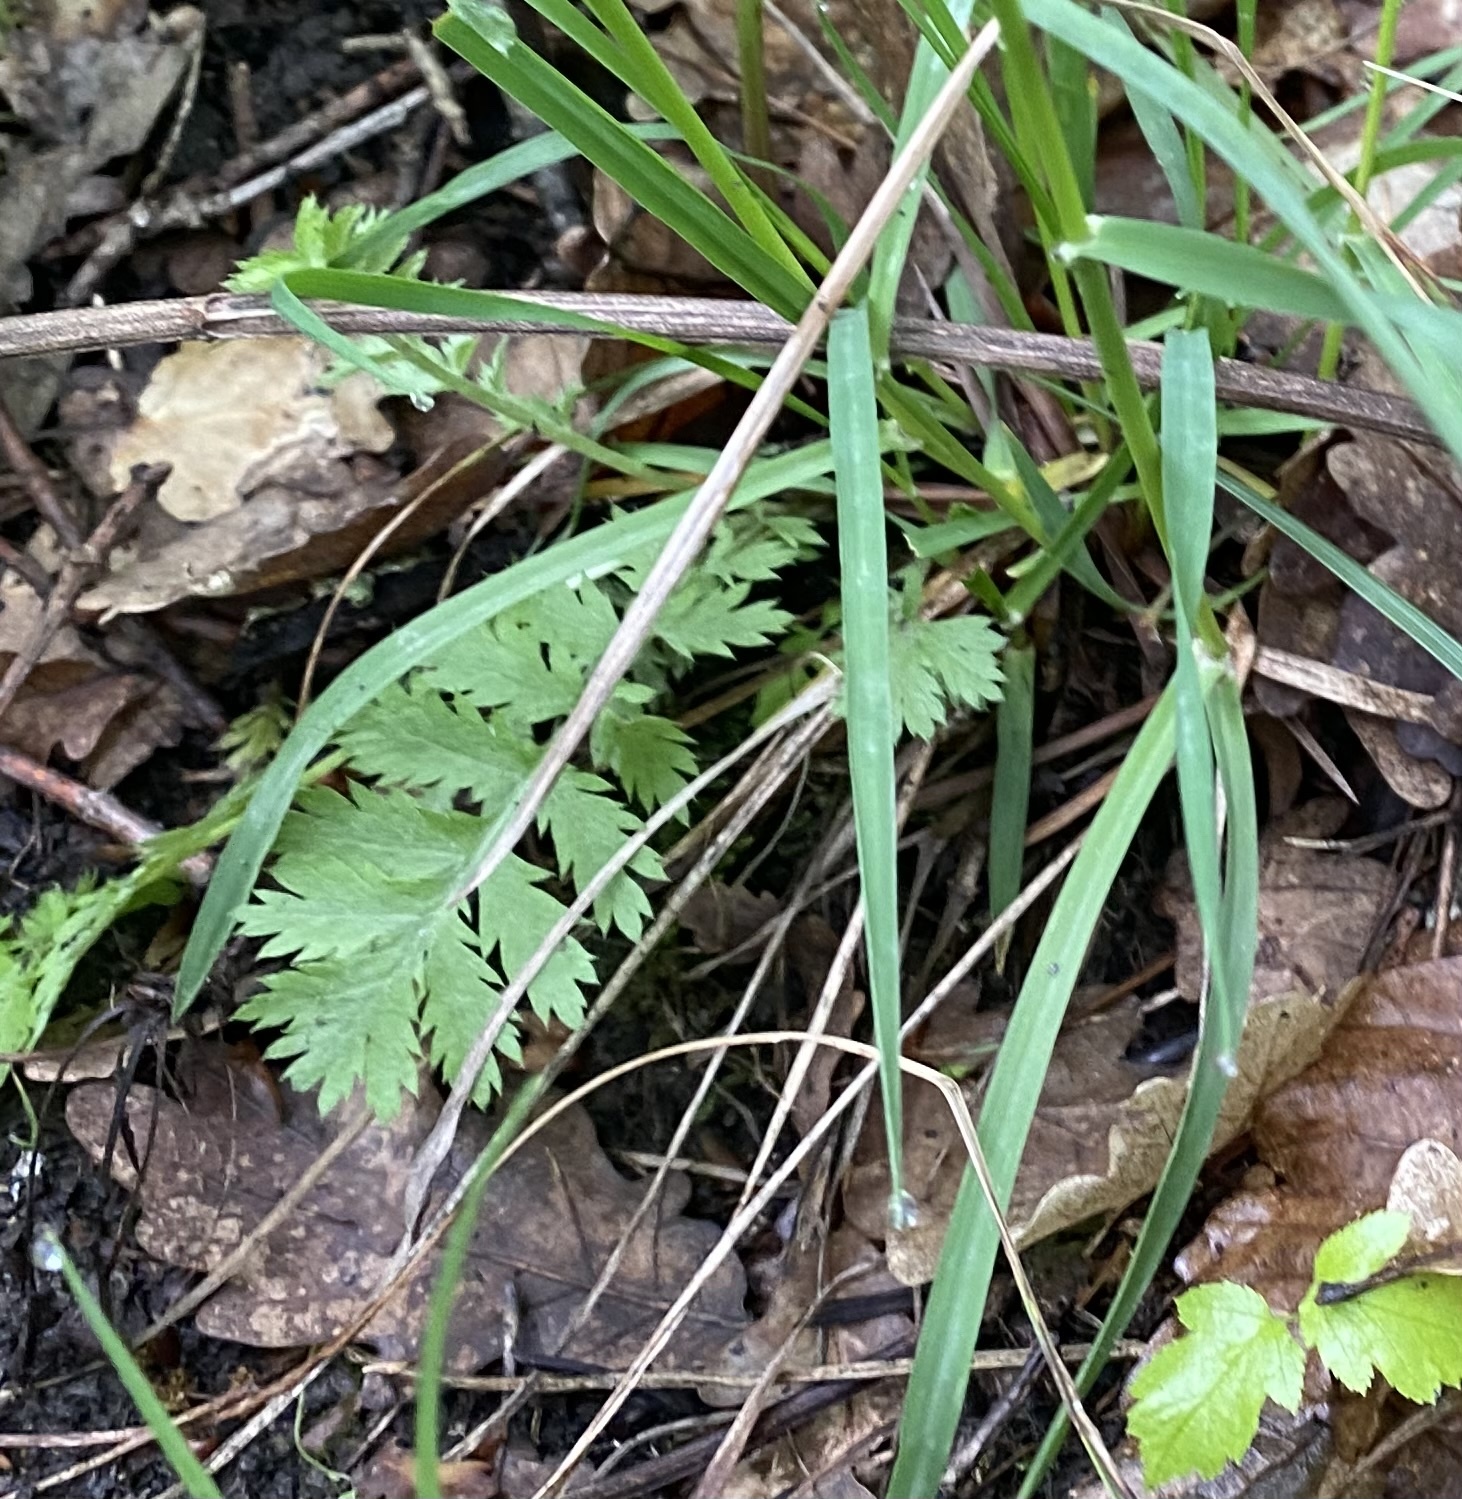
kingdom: Plantae
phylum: Tracheophyta
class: Magnoliopsida
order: Asterales
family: Asteraceae
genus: Tanacetum
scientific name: Tanacetum poteriifolium
